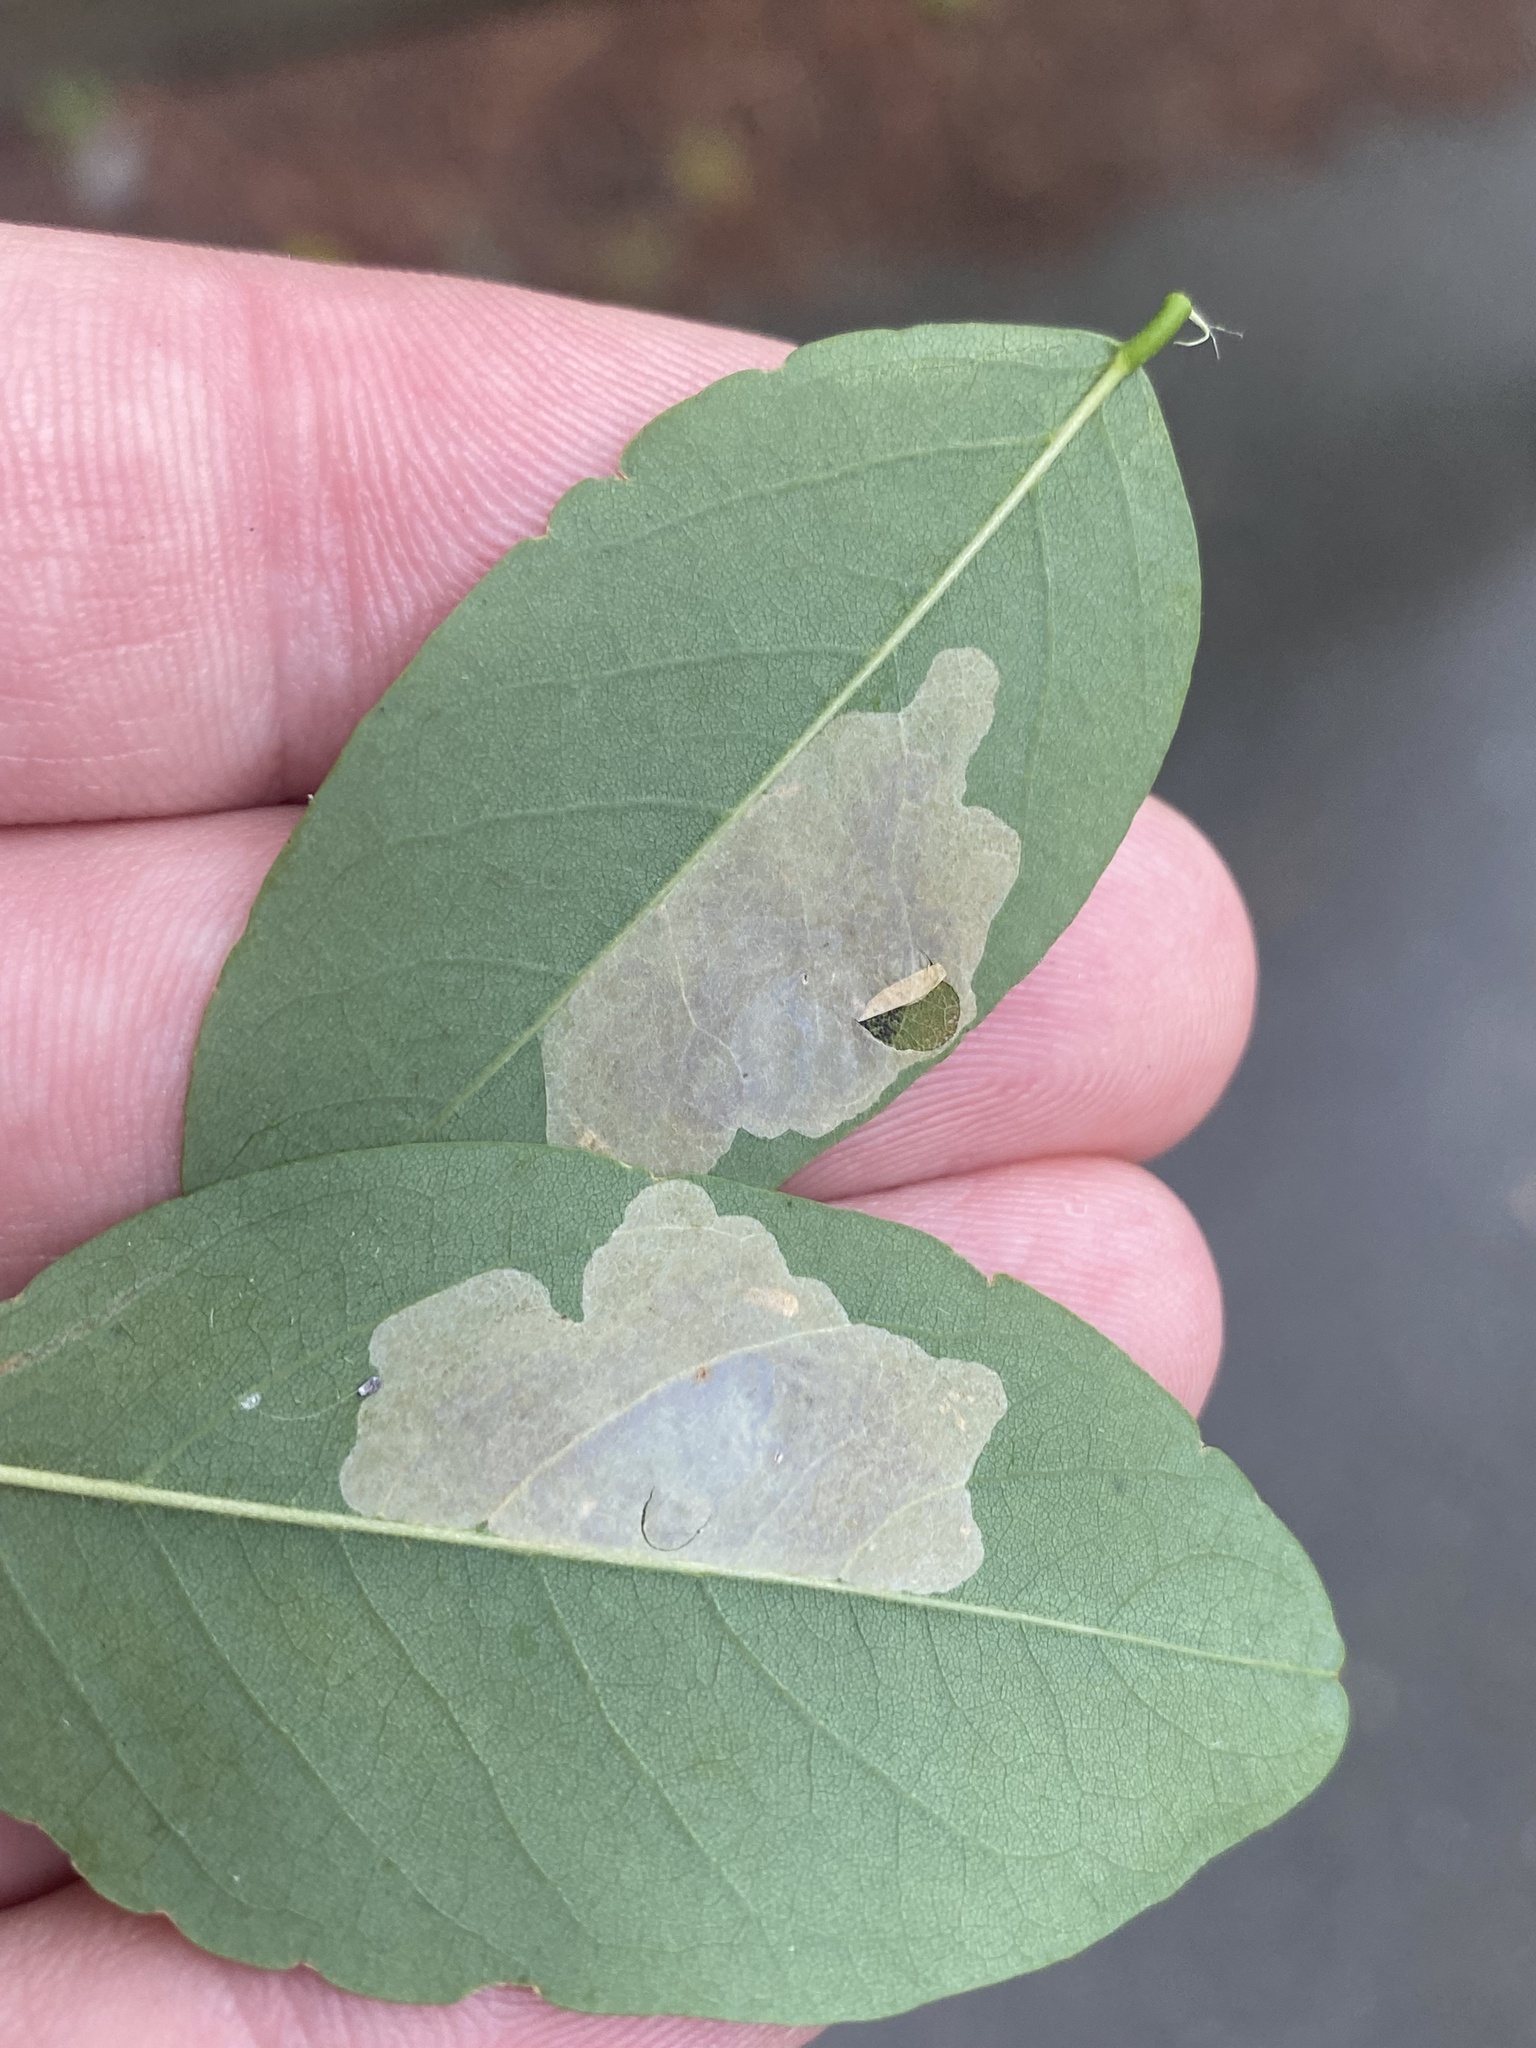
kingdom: Animalia
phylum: Arthropoda
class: Insecta
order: Lepidoptera
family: Gracillariidae
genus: Chrysaster
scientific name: Chrysaster ostensackenella
